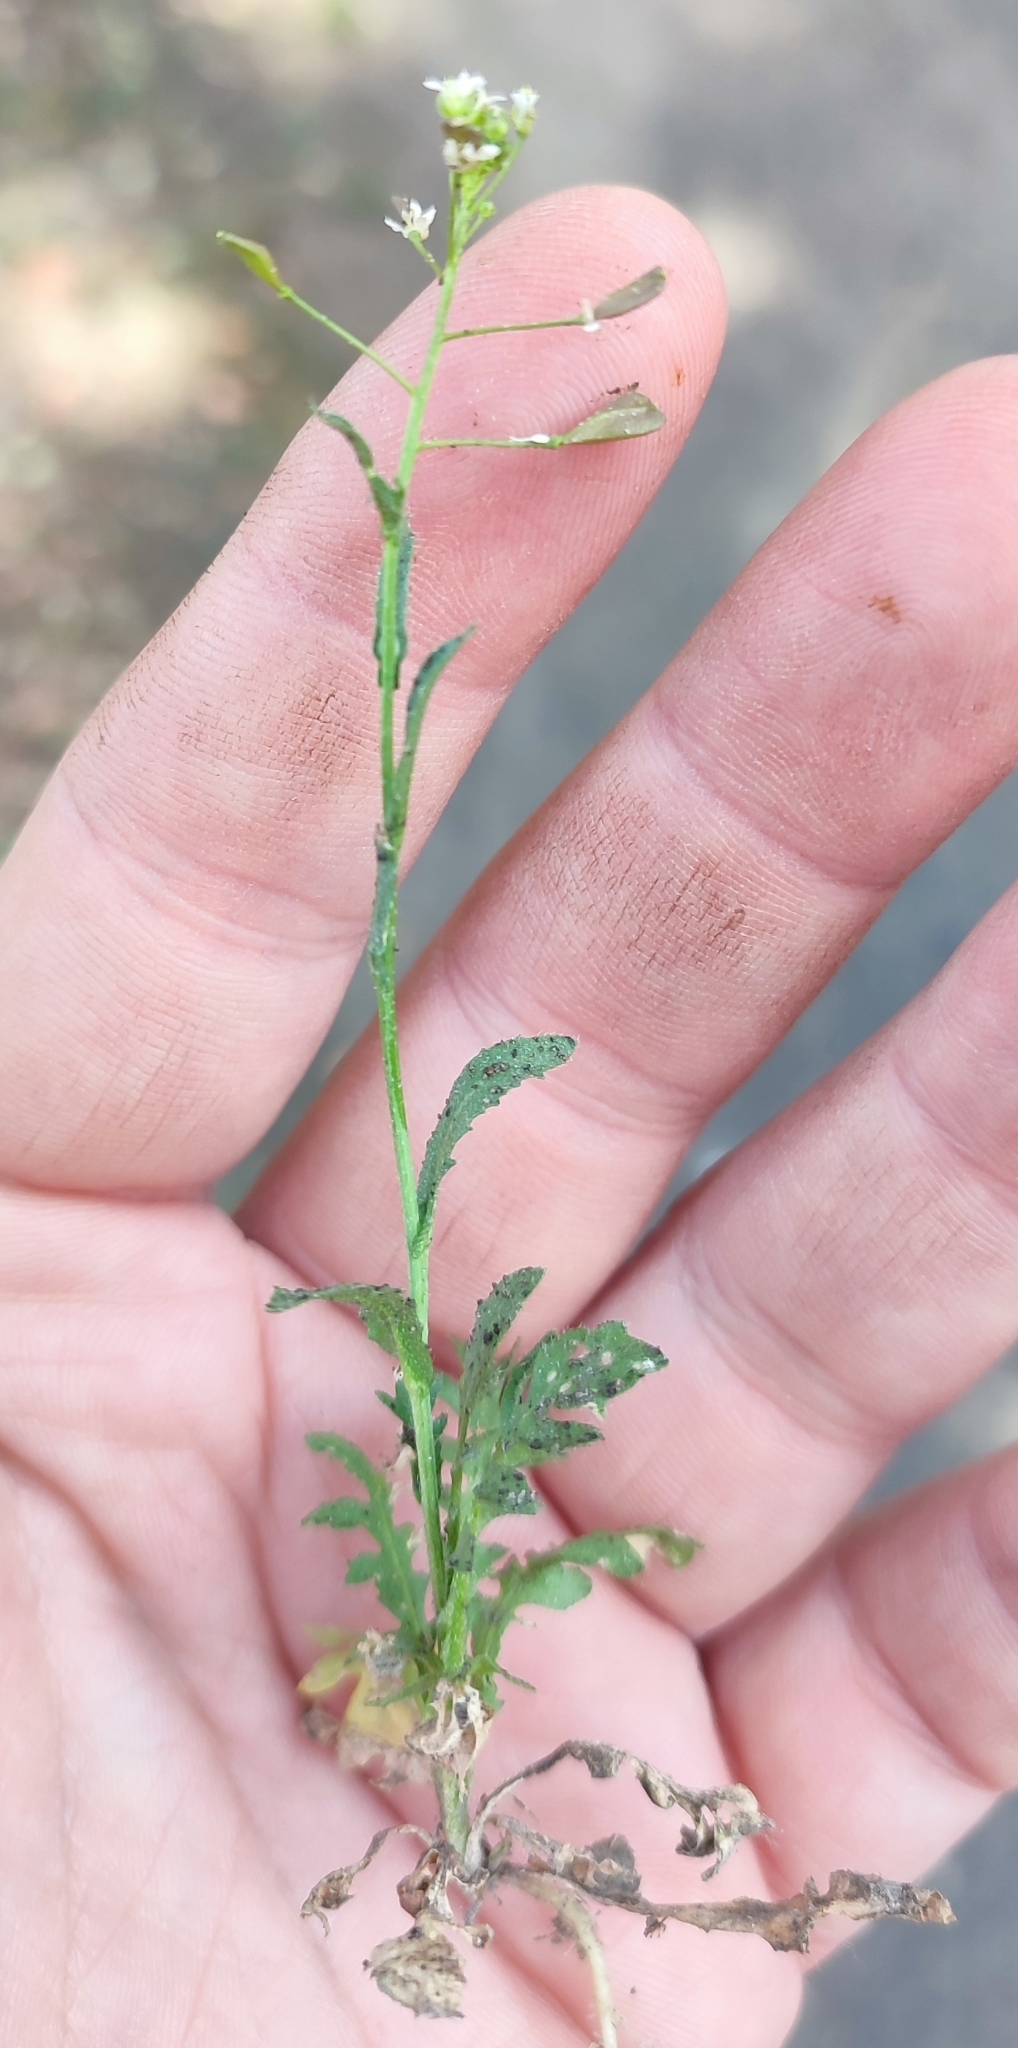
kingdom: Plantae
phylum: Tracheophyta
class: Magnoliopsida
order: Brassicales
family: Brassicaceae
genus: Capsella
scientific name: Capsella bursa-pastoris
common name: Shepherd's purse
